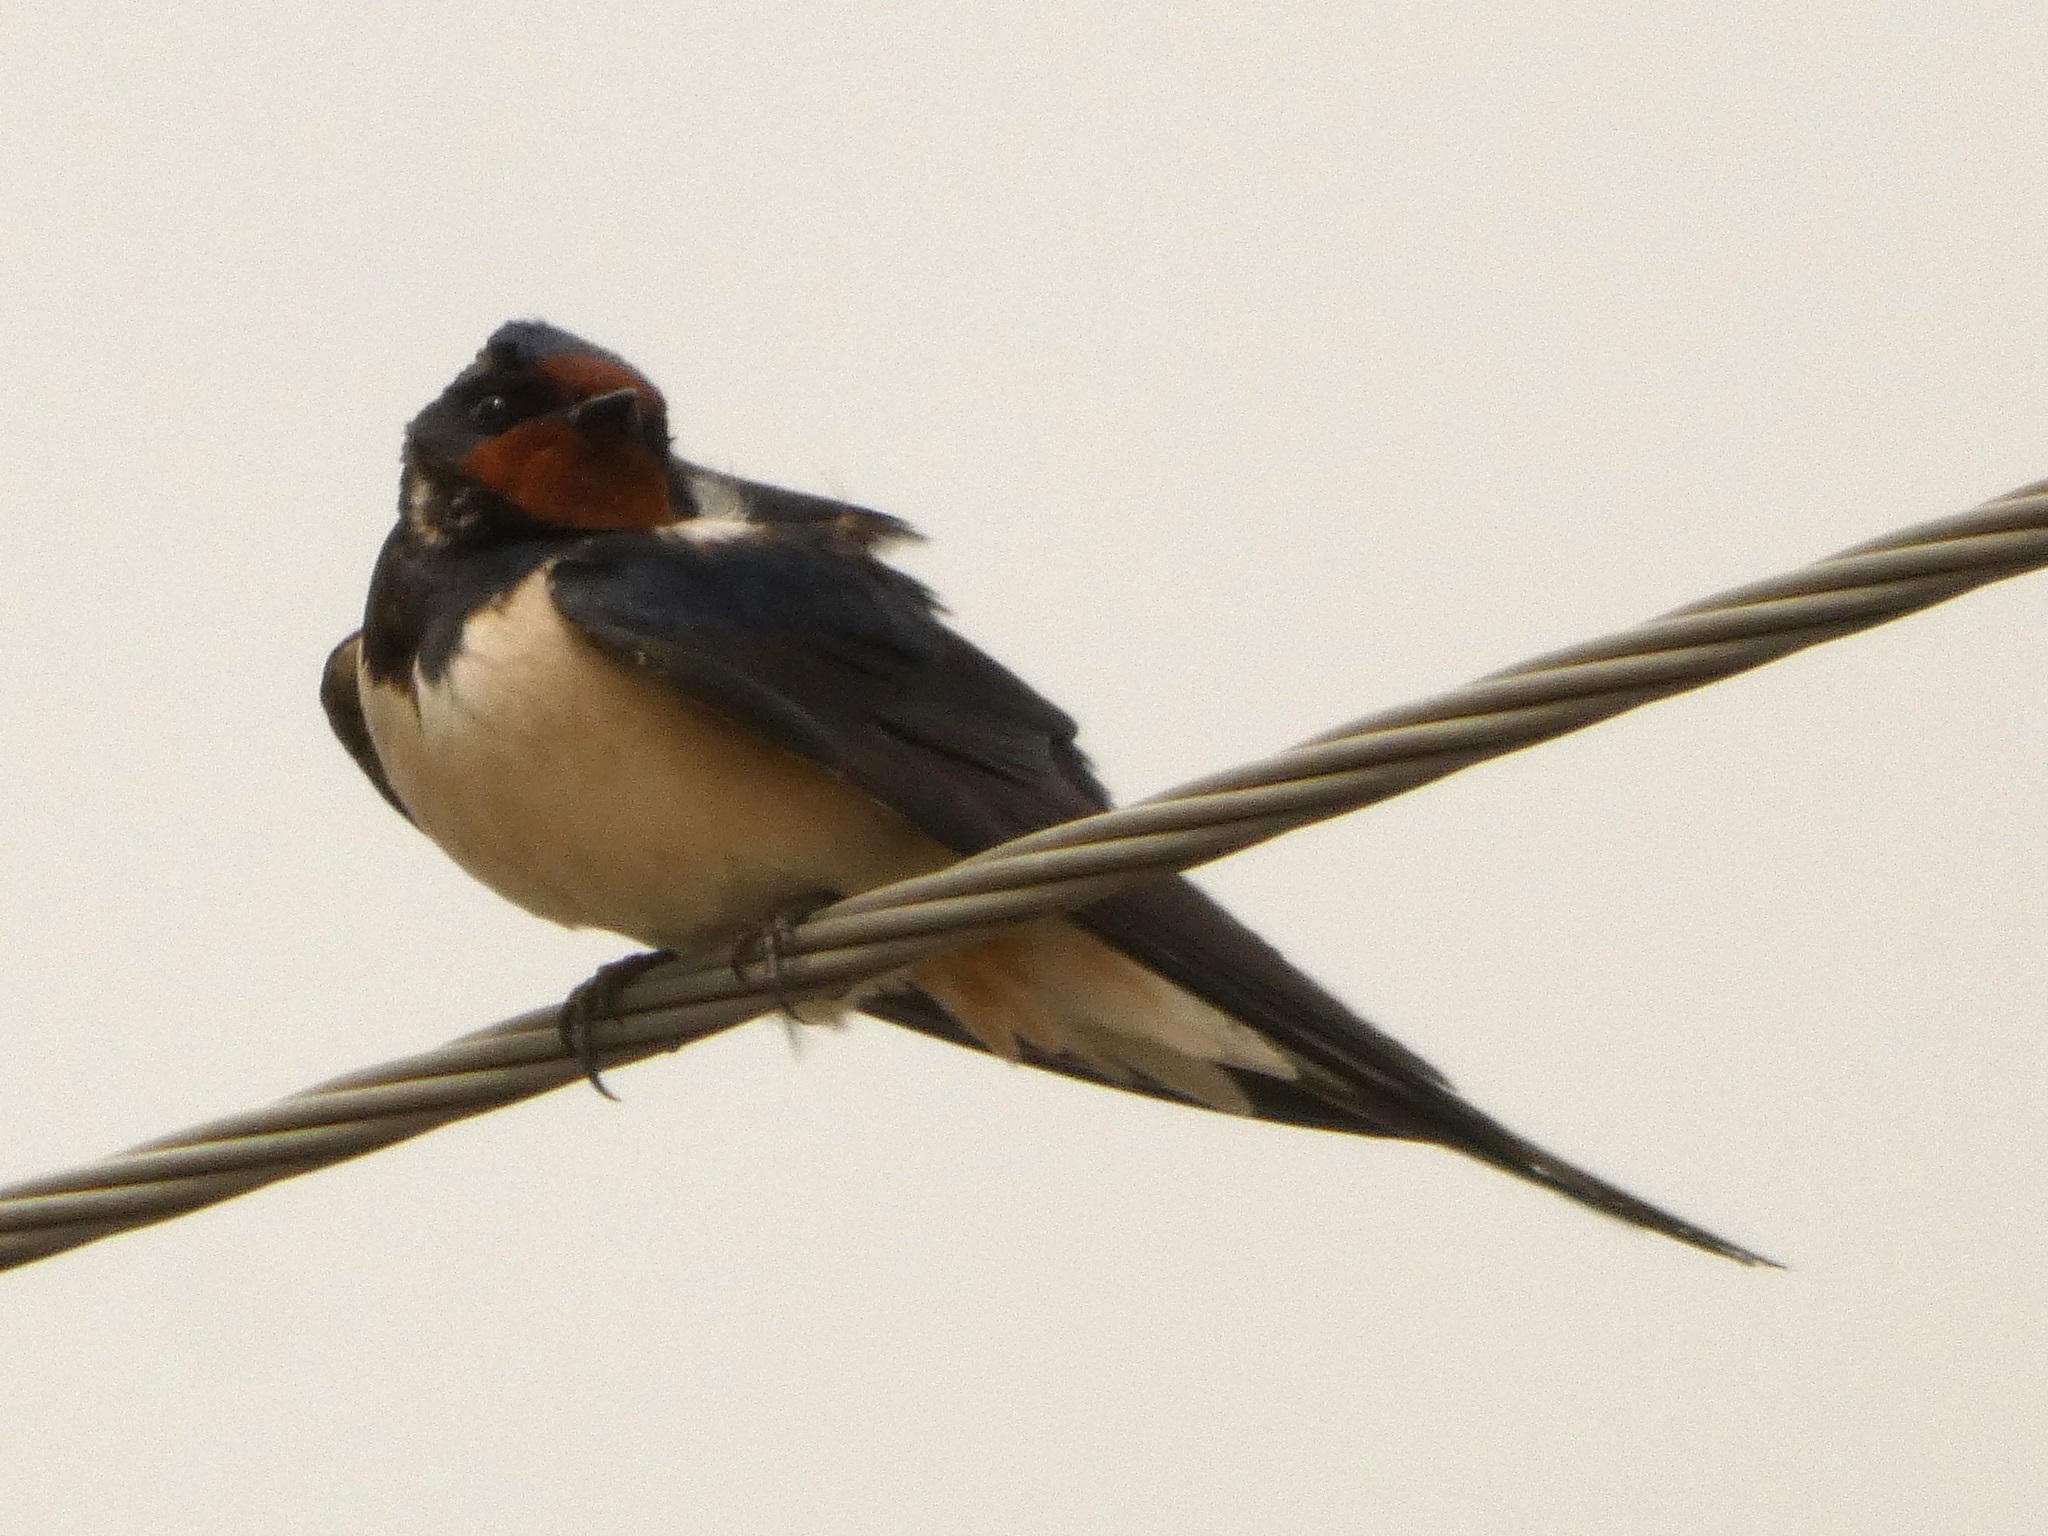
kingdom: Animalia
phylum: Chordata
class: Aves
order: Passeriformes
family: Hirundinidae
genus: Hirundo
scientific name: Hirundo rustica
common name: Barn swallow
